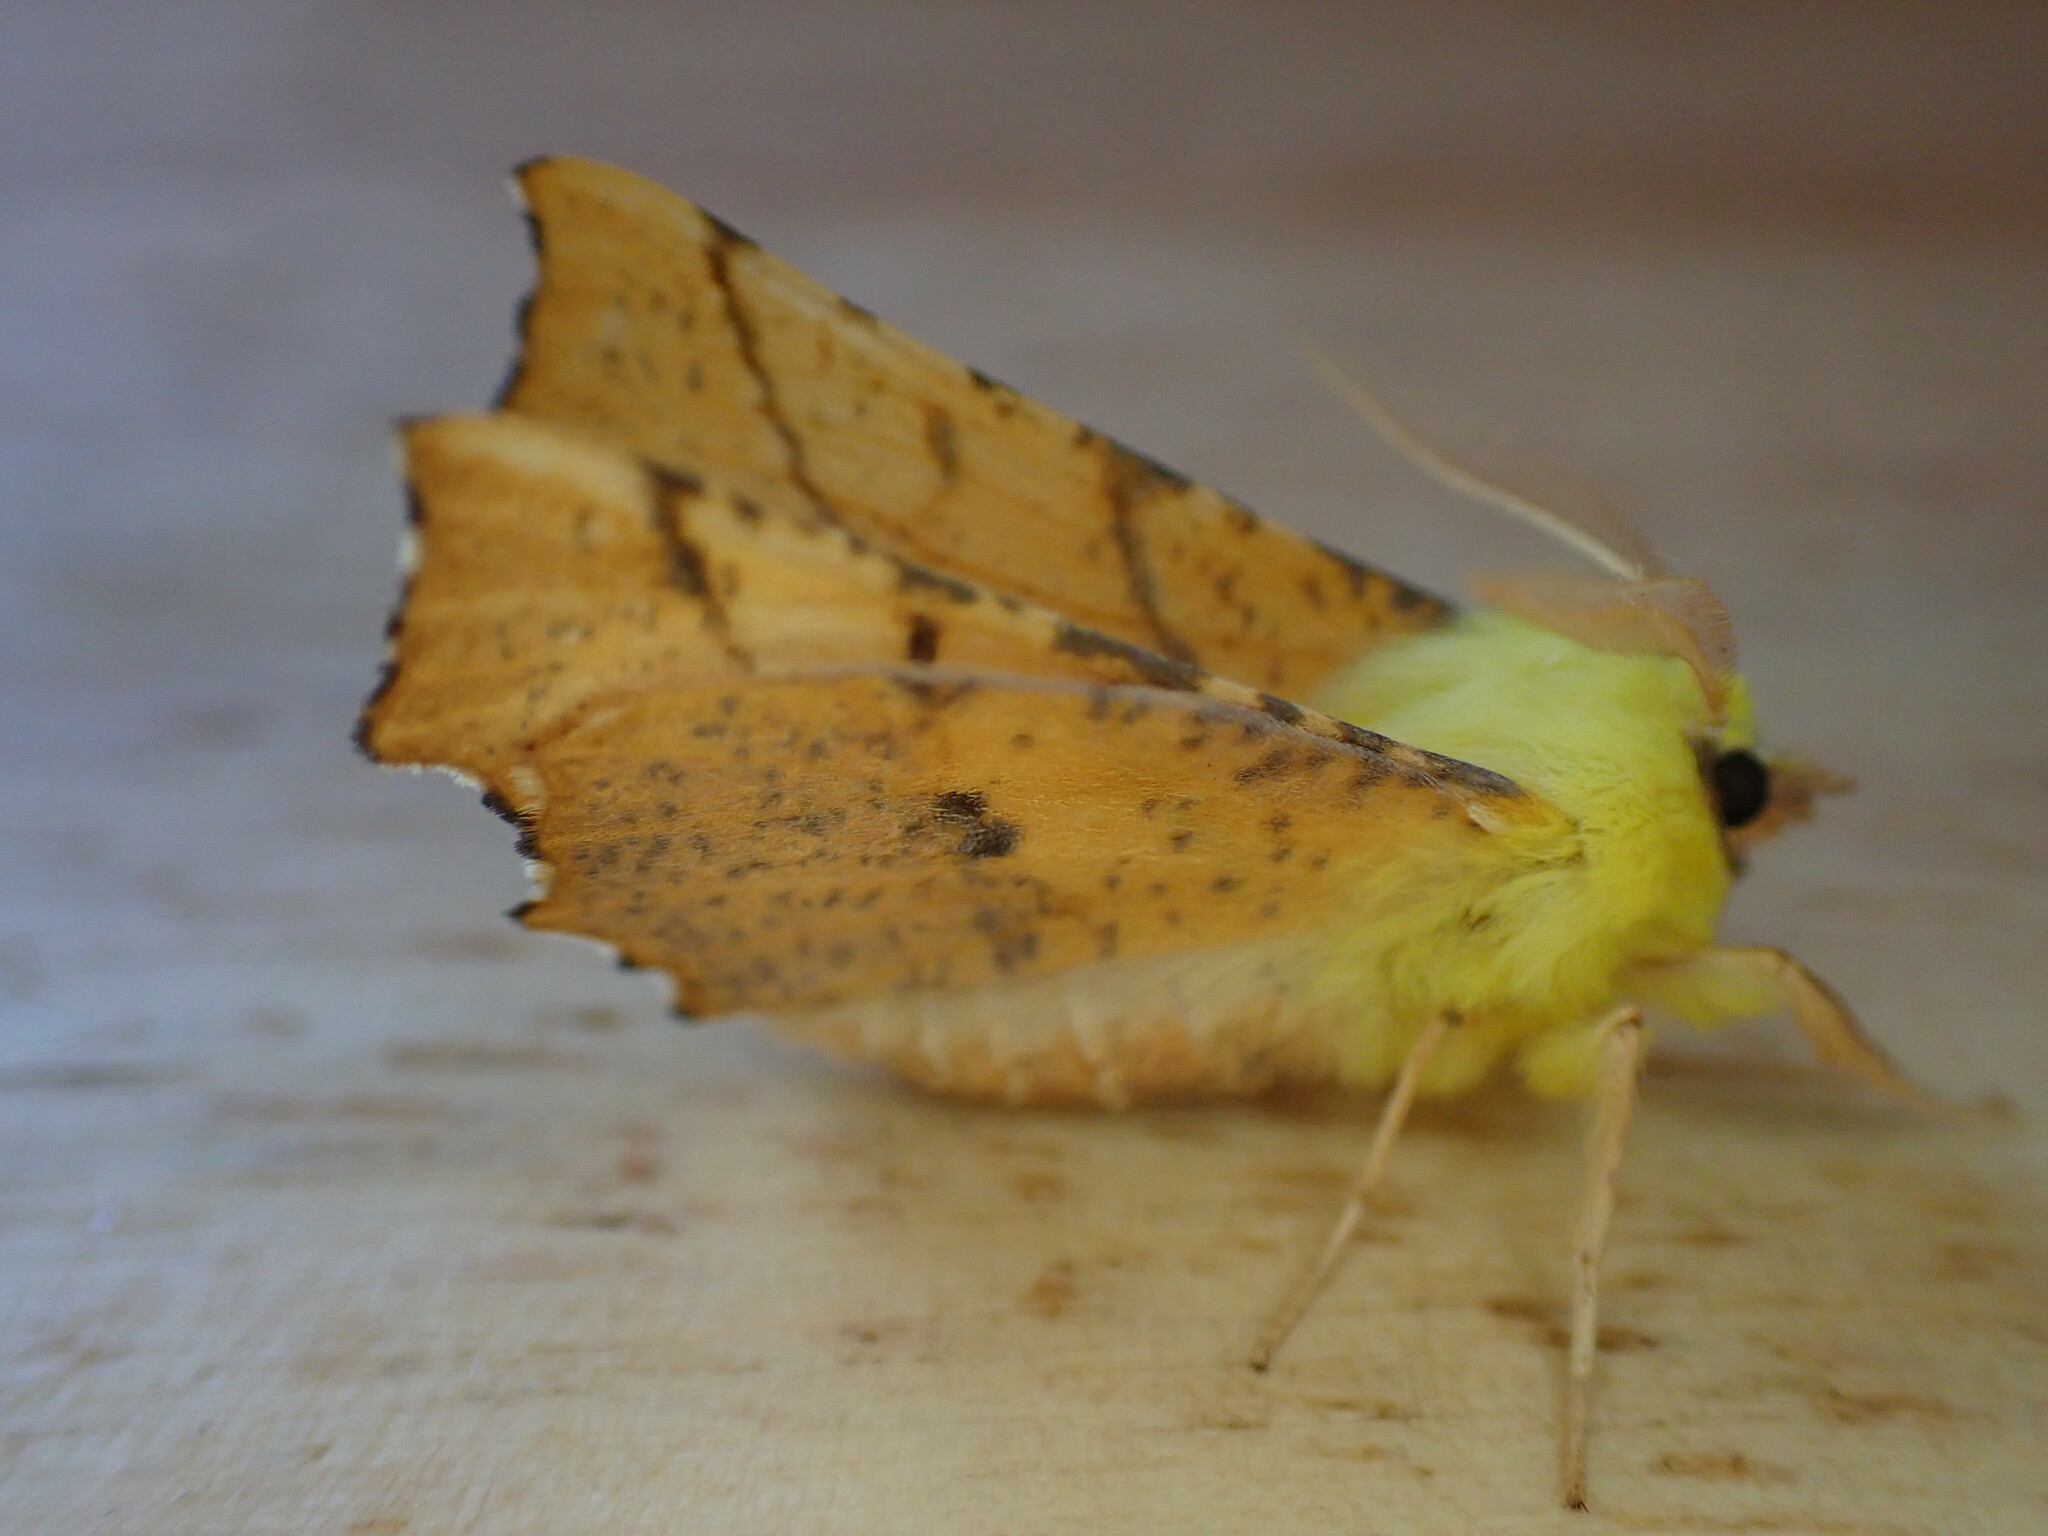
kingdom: Animalia
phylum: Arthropoda
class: Insecta
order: Lepidoptera
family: Geometridae
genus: Ennomos
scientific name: Ennomos alniaria
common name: Canary-shouldered thorn
